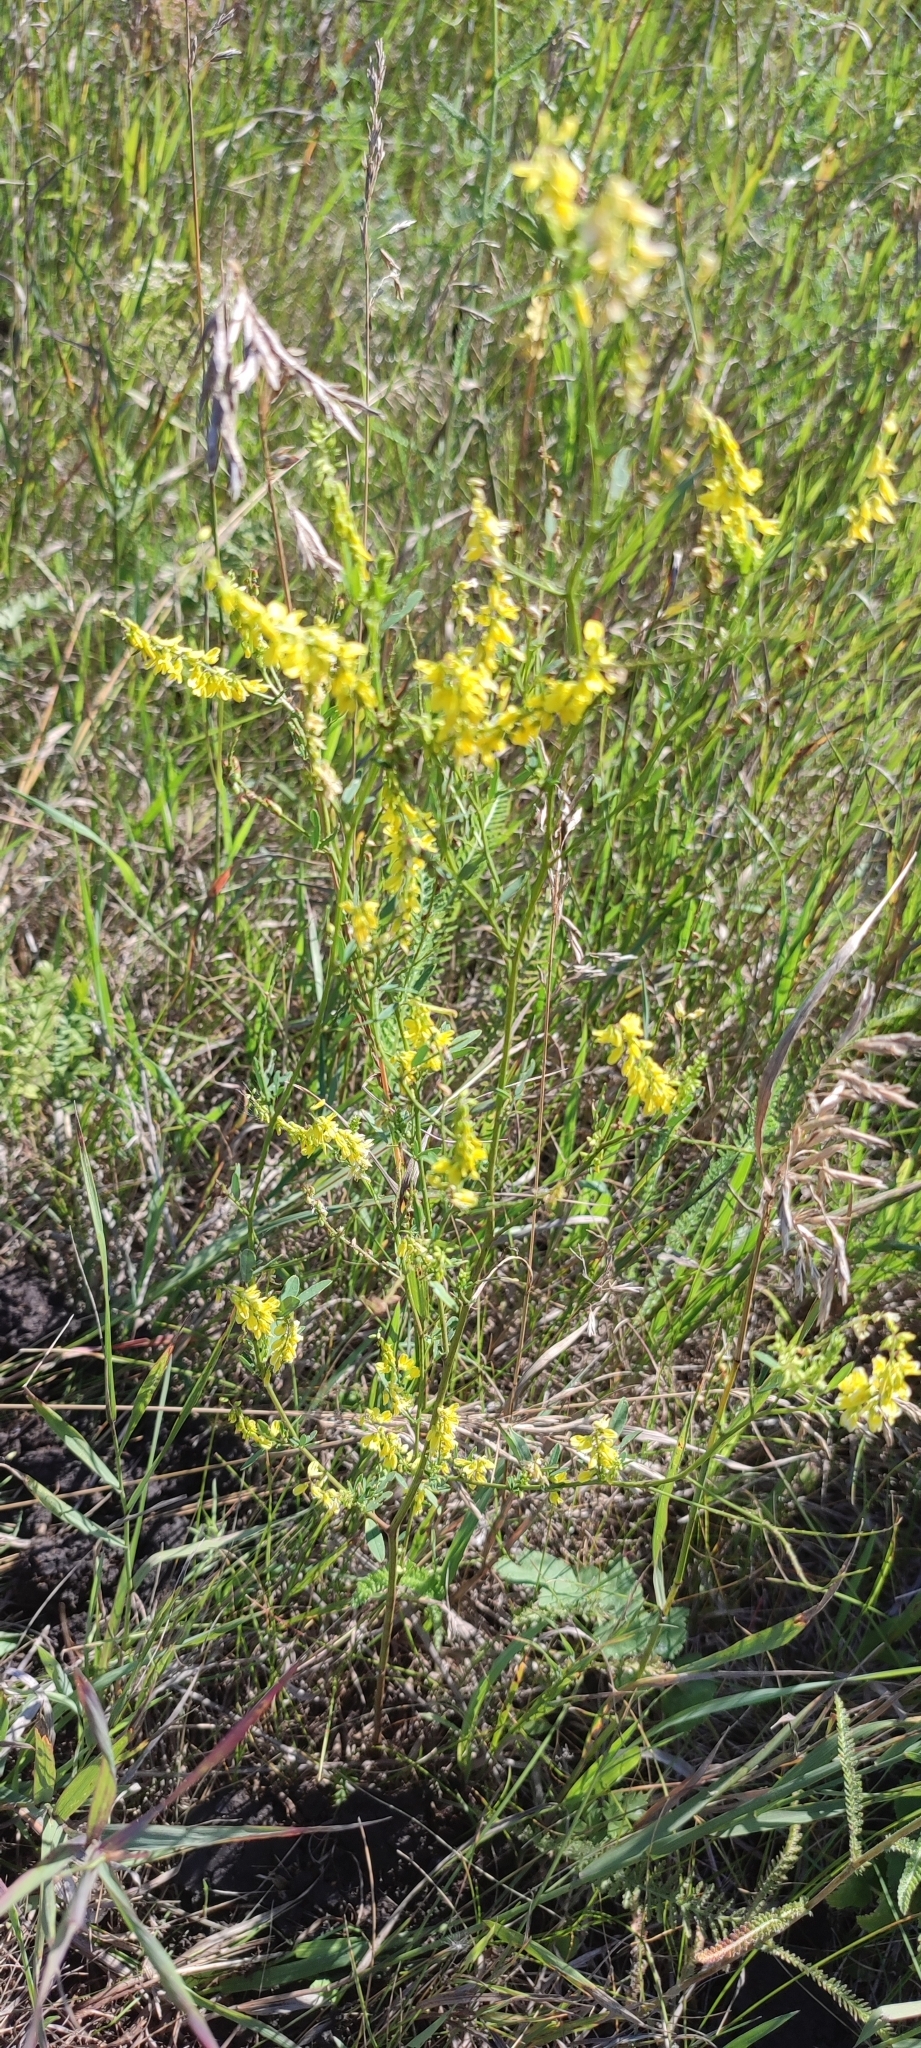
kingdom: Plantae
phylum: Tracheophyta
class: Magnoliopsida
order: Fabales
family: Fabaceae
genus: Melilotus
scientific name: Melilotus officinalis
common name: Sweetclover
